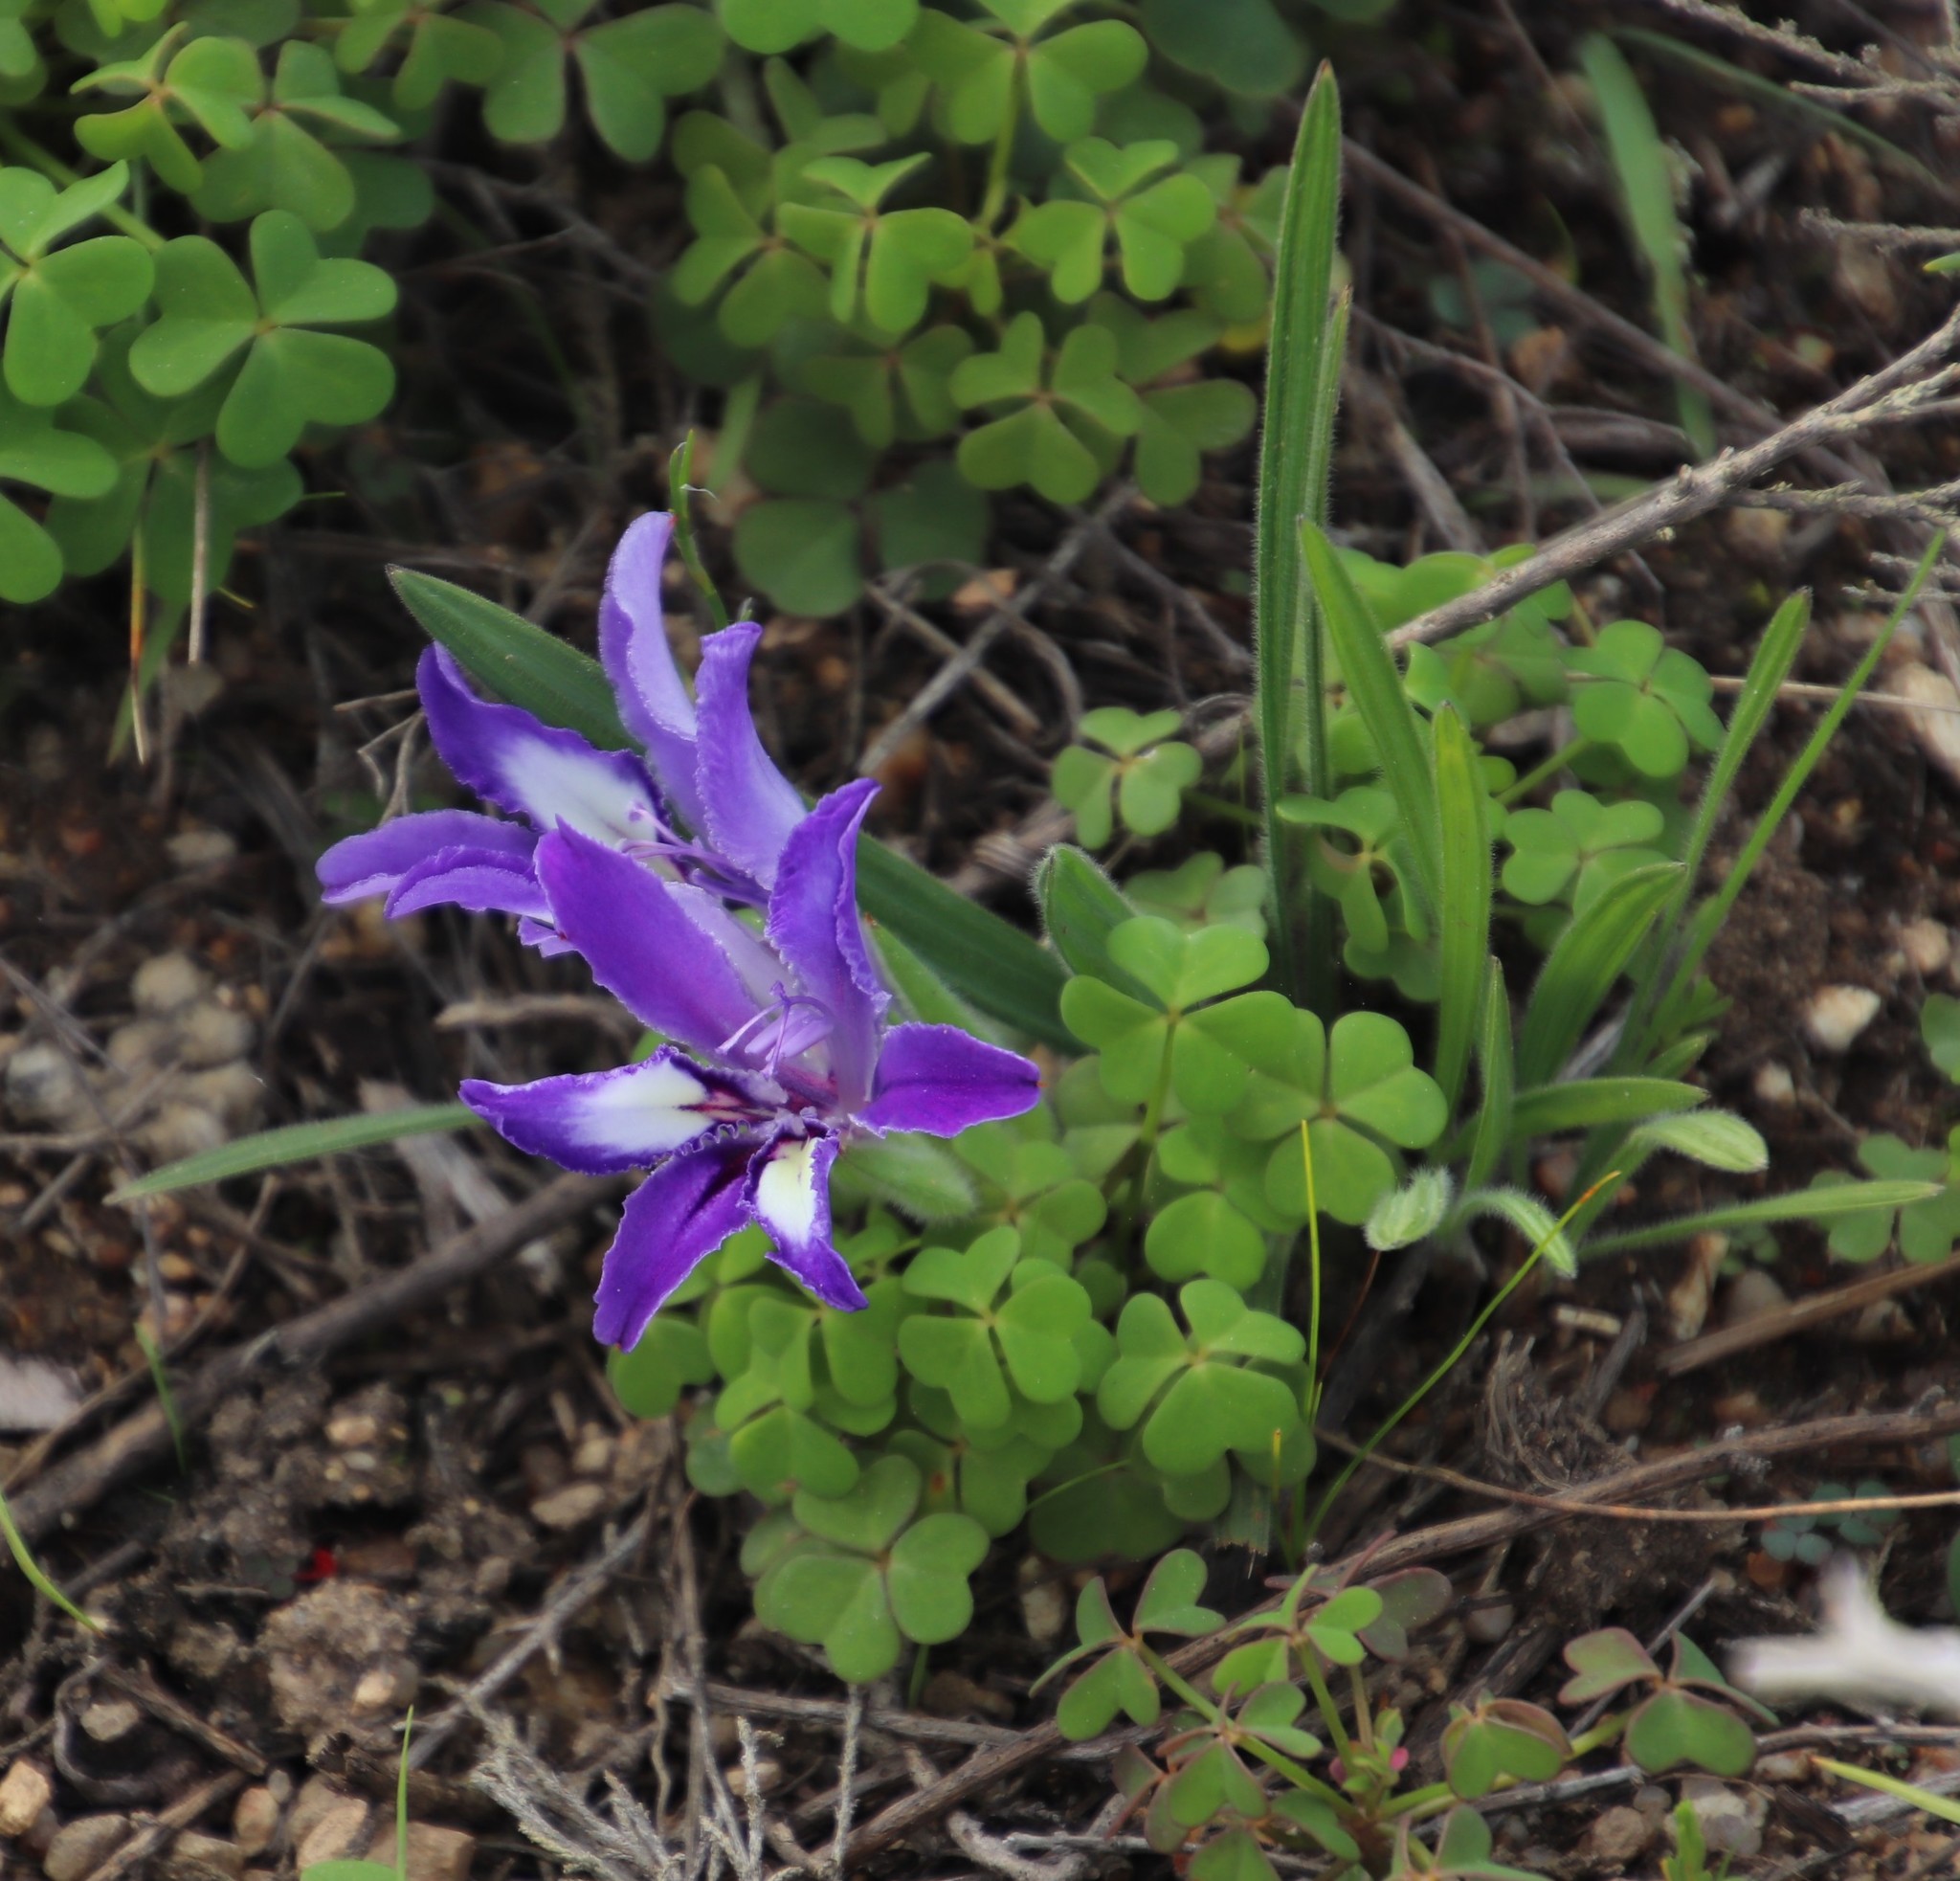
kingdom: Plantae
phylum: Tracheophyta
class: Liliopsida
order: Asparagales
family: Iridaceae
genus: Babiana
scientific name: Babiana ambigua
